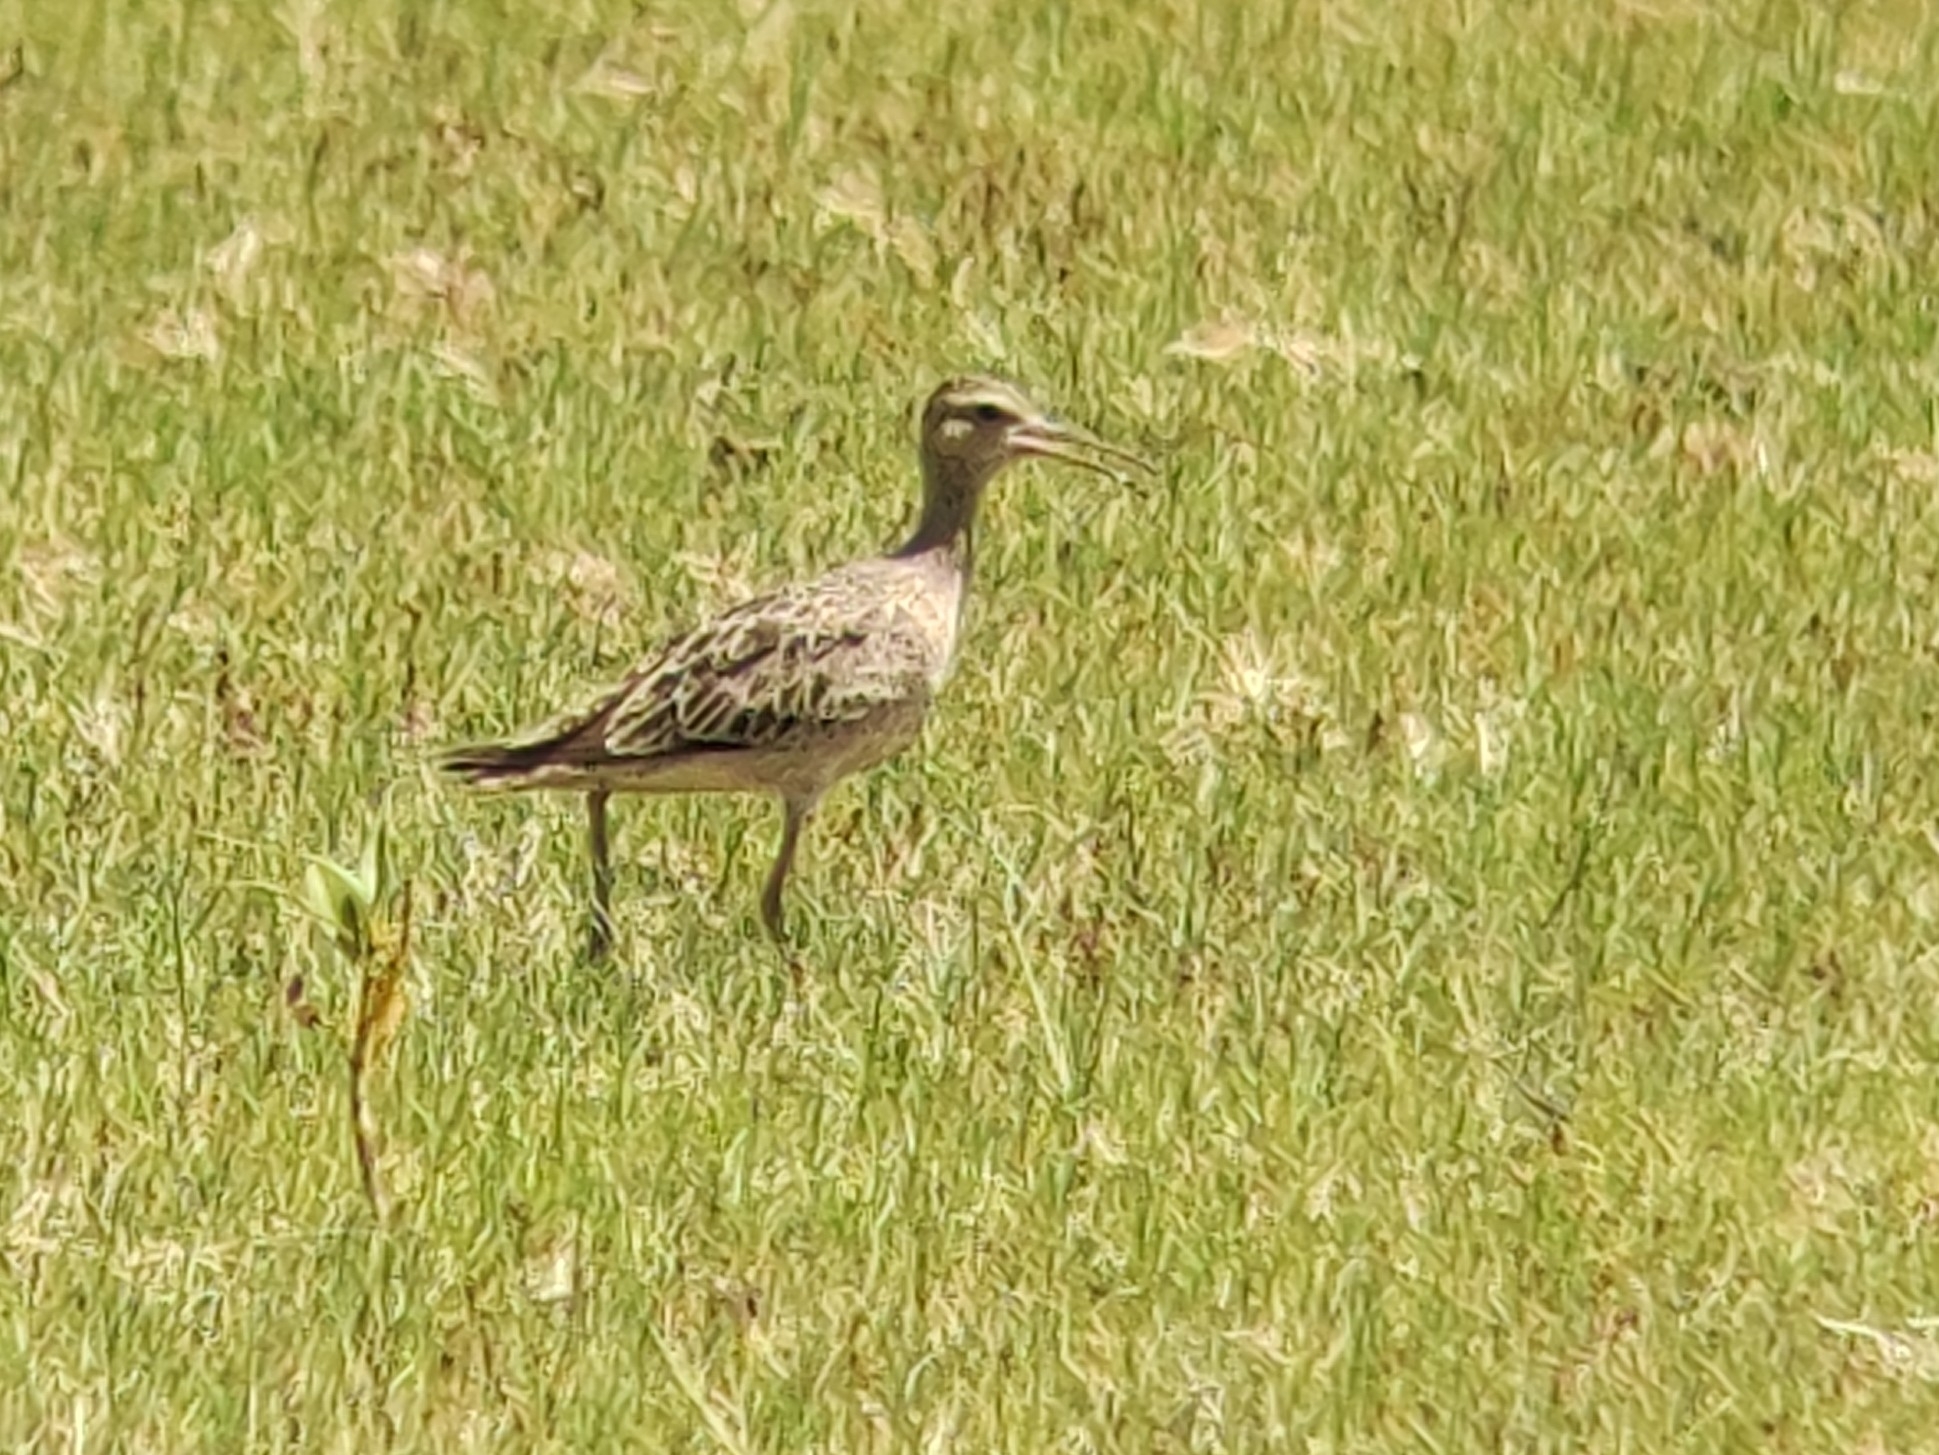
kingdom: Animalia
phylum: Chordata
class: Aves
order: Charadriiformes
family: Scolopacidae
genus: Numenius
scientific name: Numenius minutus
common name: Little curlew
